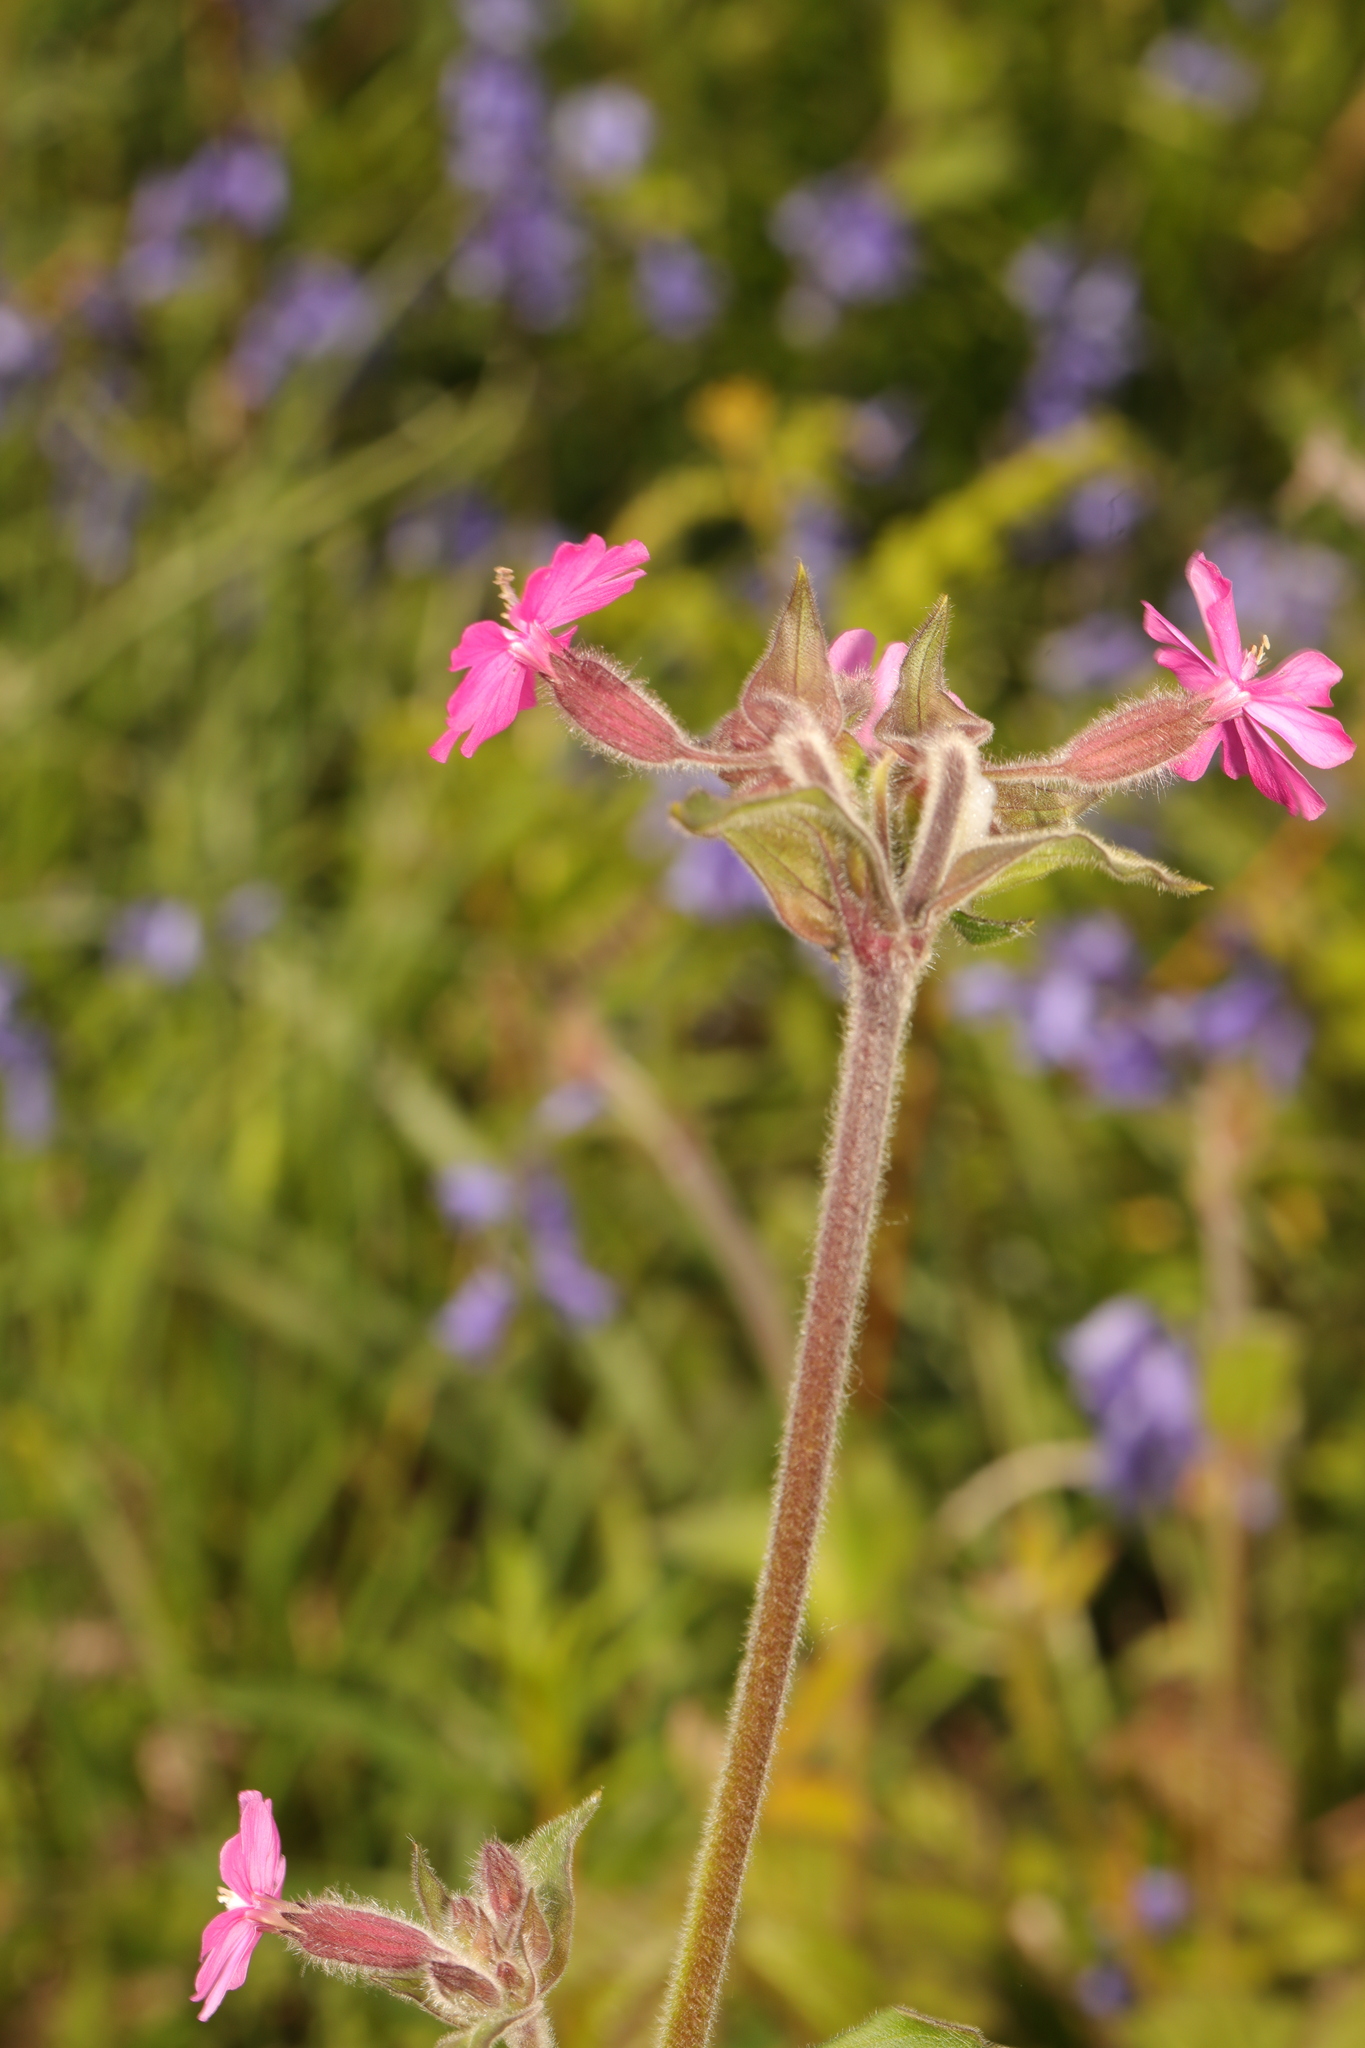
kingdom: Plantae
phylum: Tracheophyta
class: Magnoliopsida
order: Caryophyllales
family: Caryophyllaceae
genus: Silene
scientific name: Silene dioica
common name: Red campion
